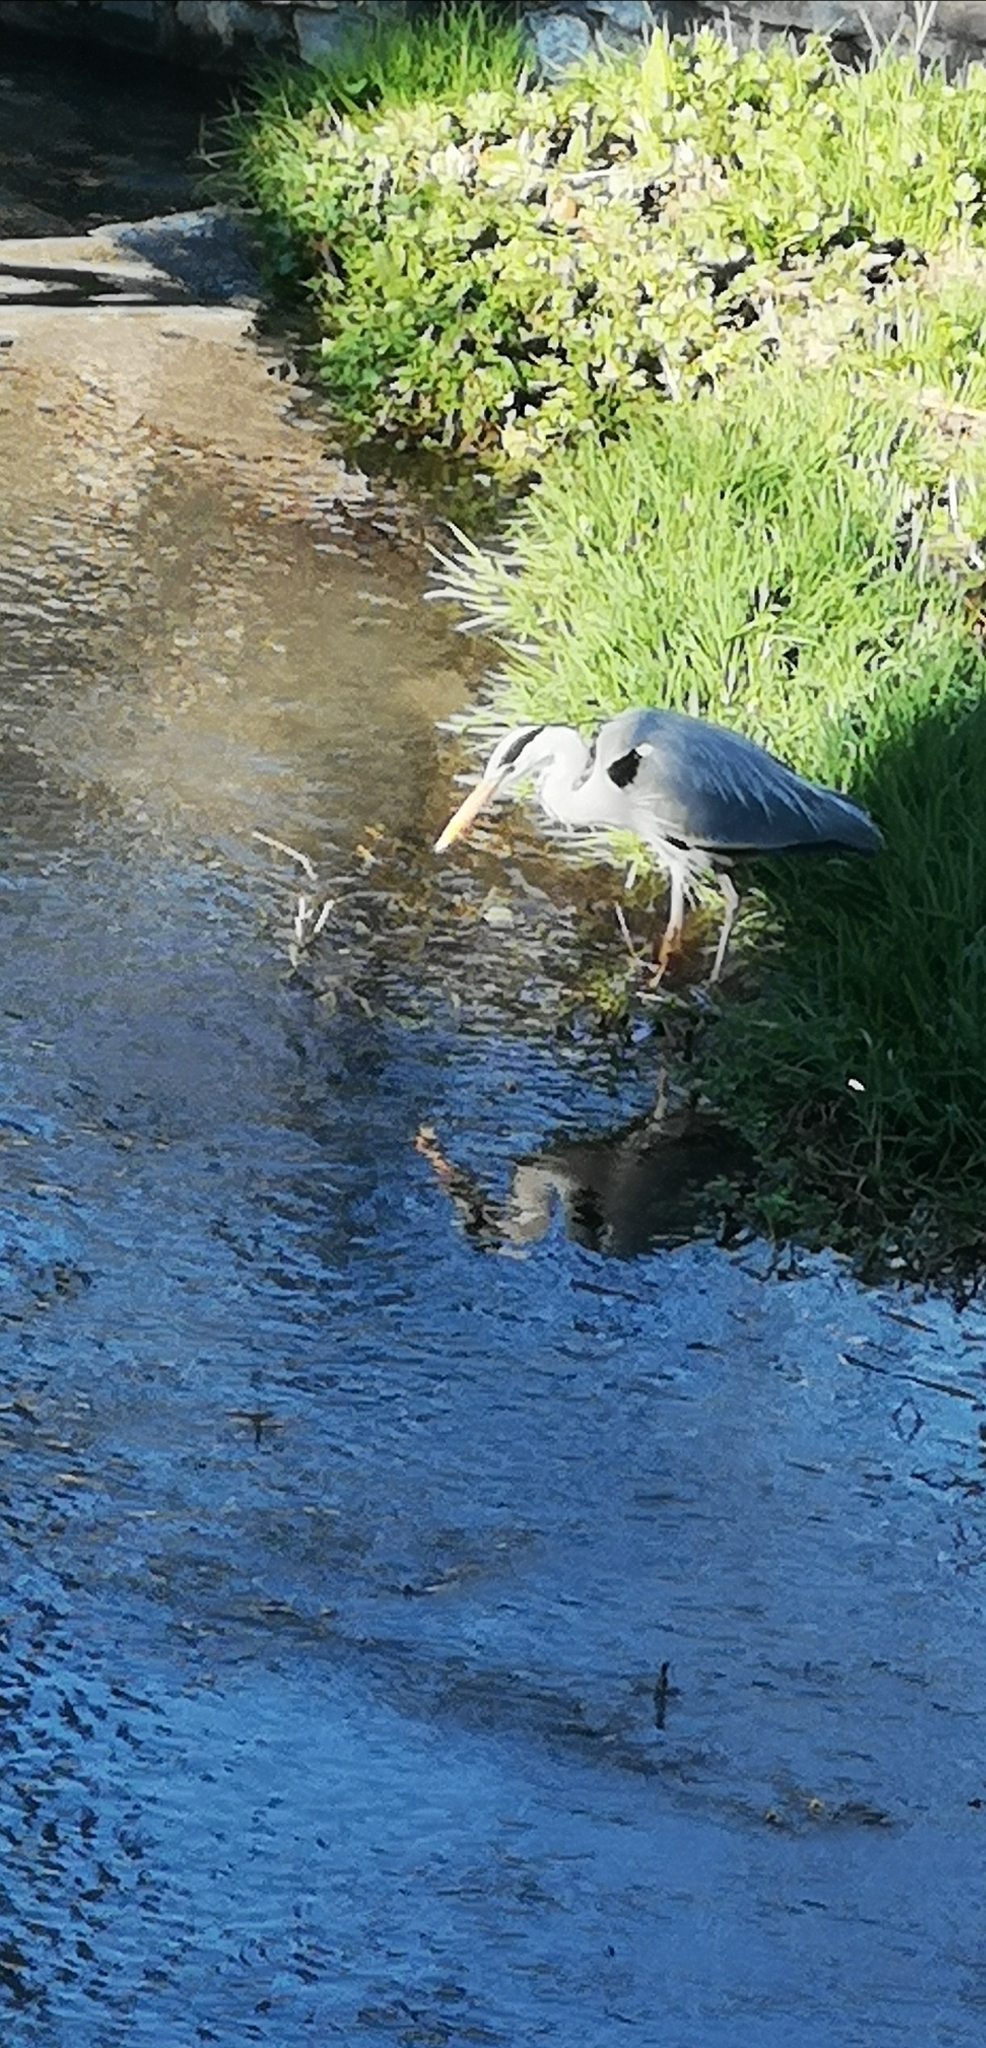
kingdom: Animalia
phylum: Chordata
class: Aves
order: Pelecaniformes
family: Ardeidae
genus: Ardea
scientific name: Ardea cinerea
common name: Grey heron
